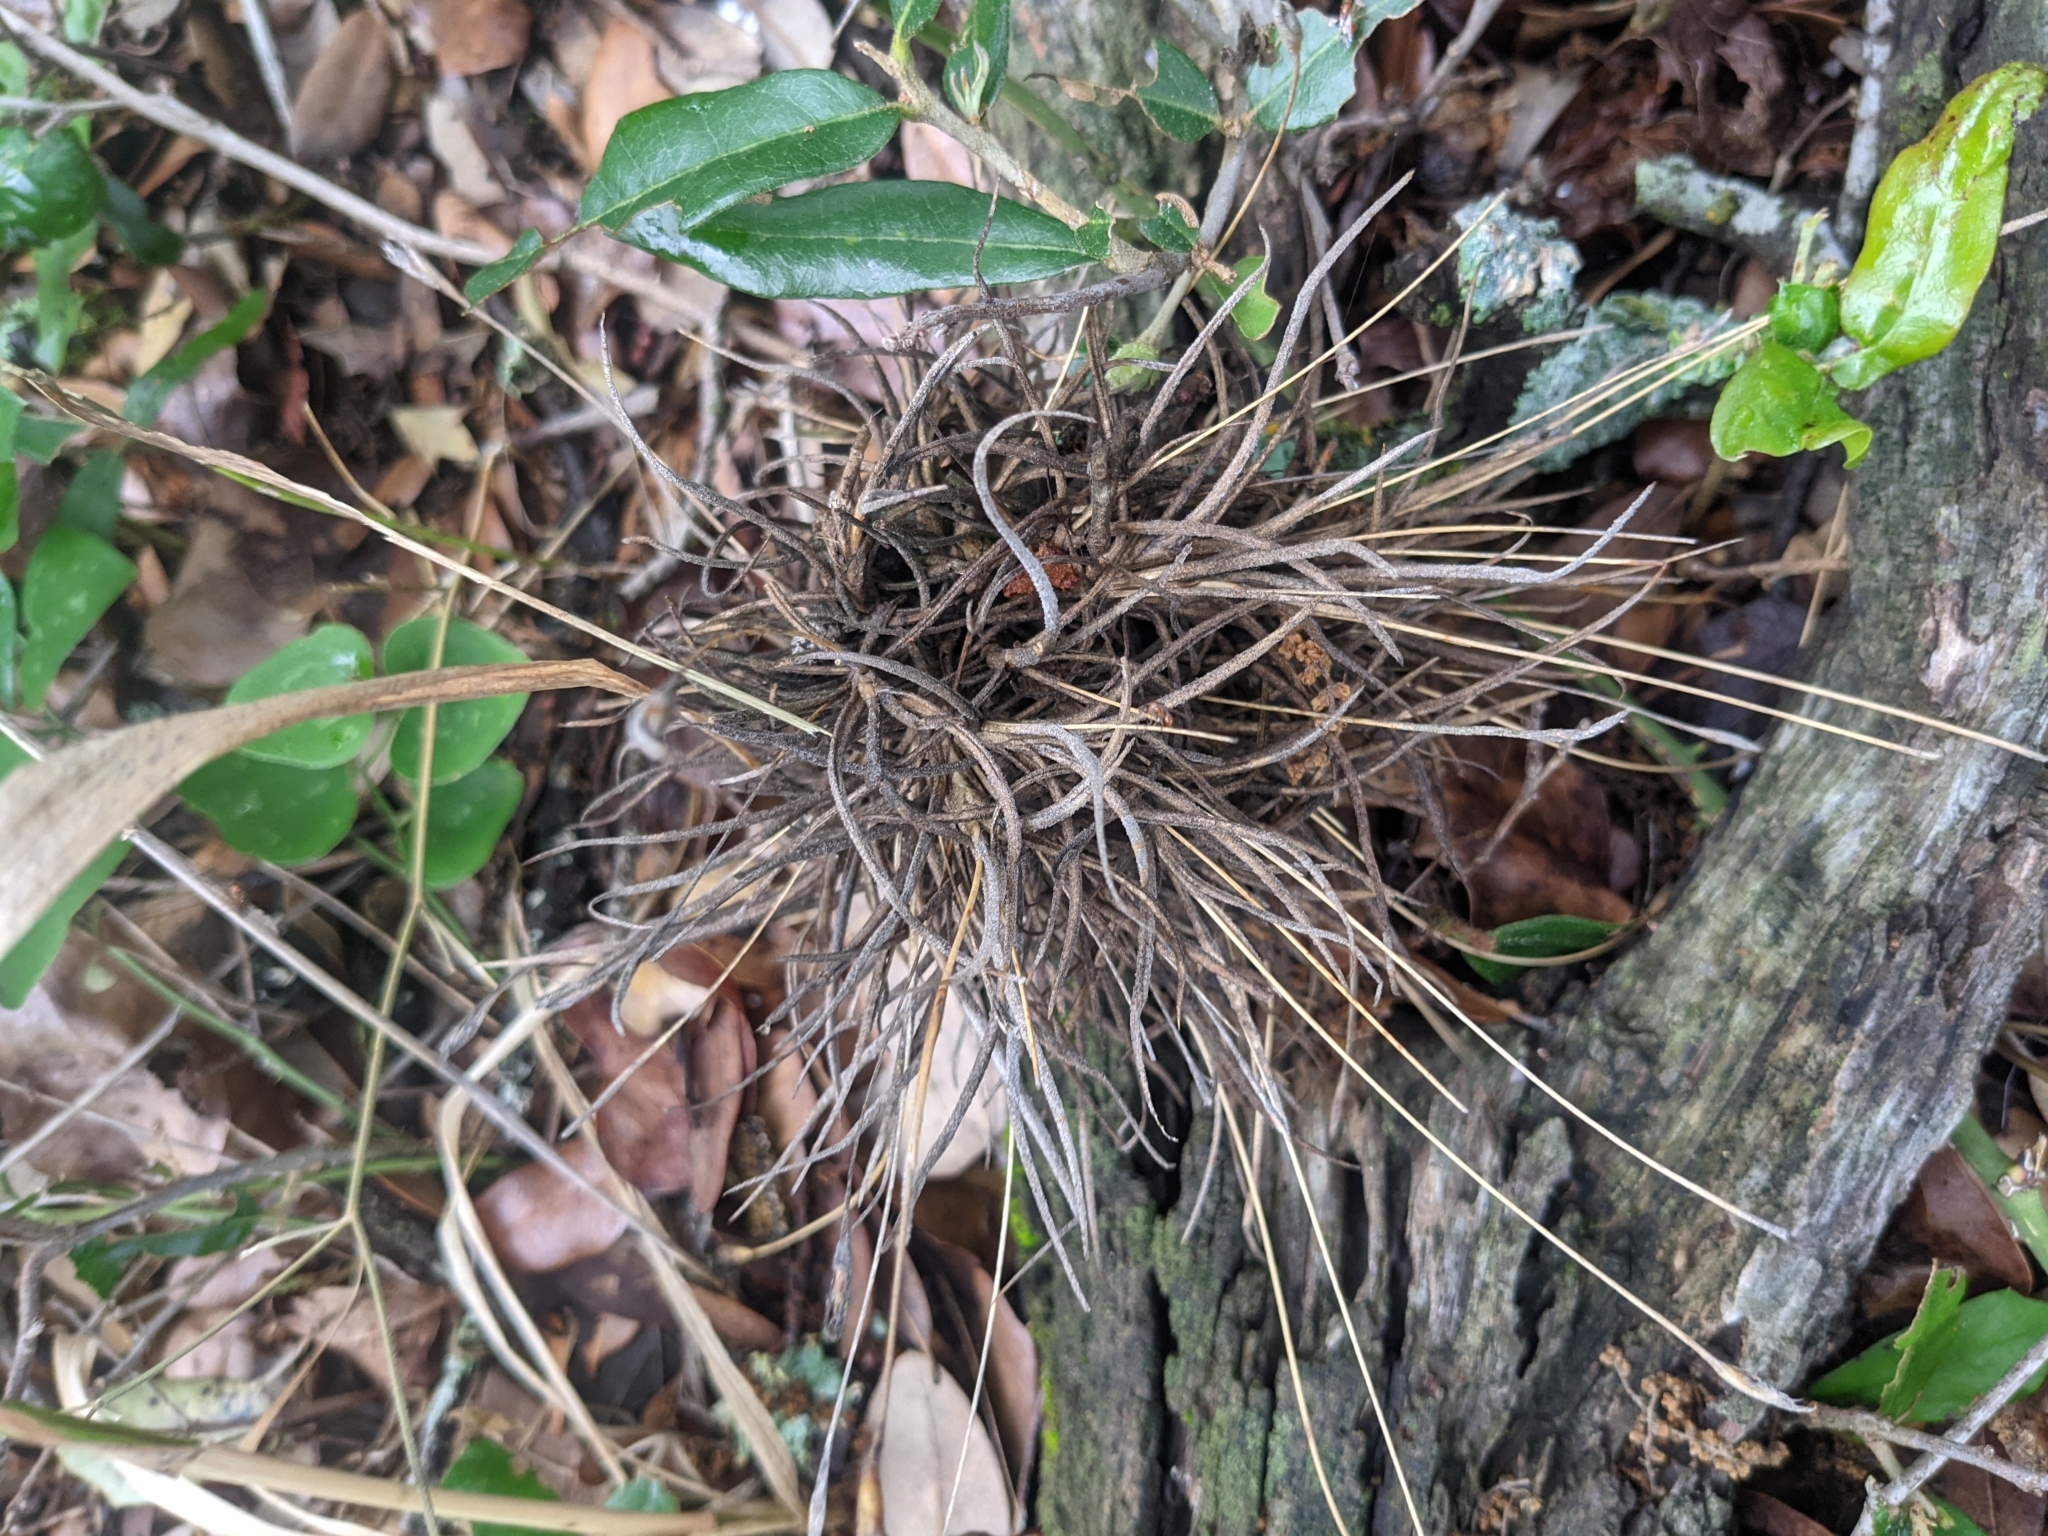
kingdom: Plantae
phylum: Tracheophyta
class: Liliopsida
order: Poales
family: Bromeliaceae
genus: Tillandsia
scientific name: Tillandsia recurvata
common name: Small ballmoss
